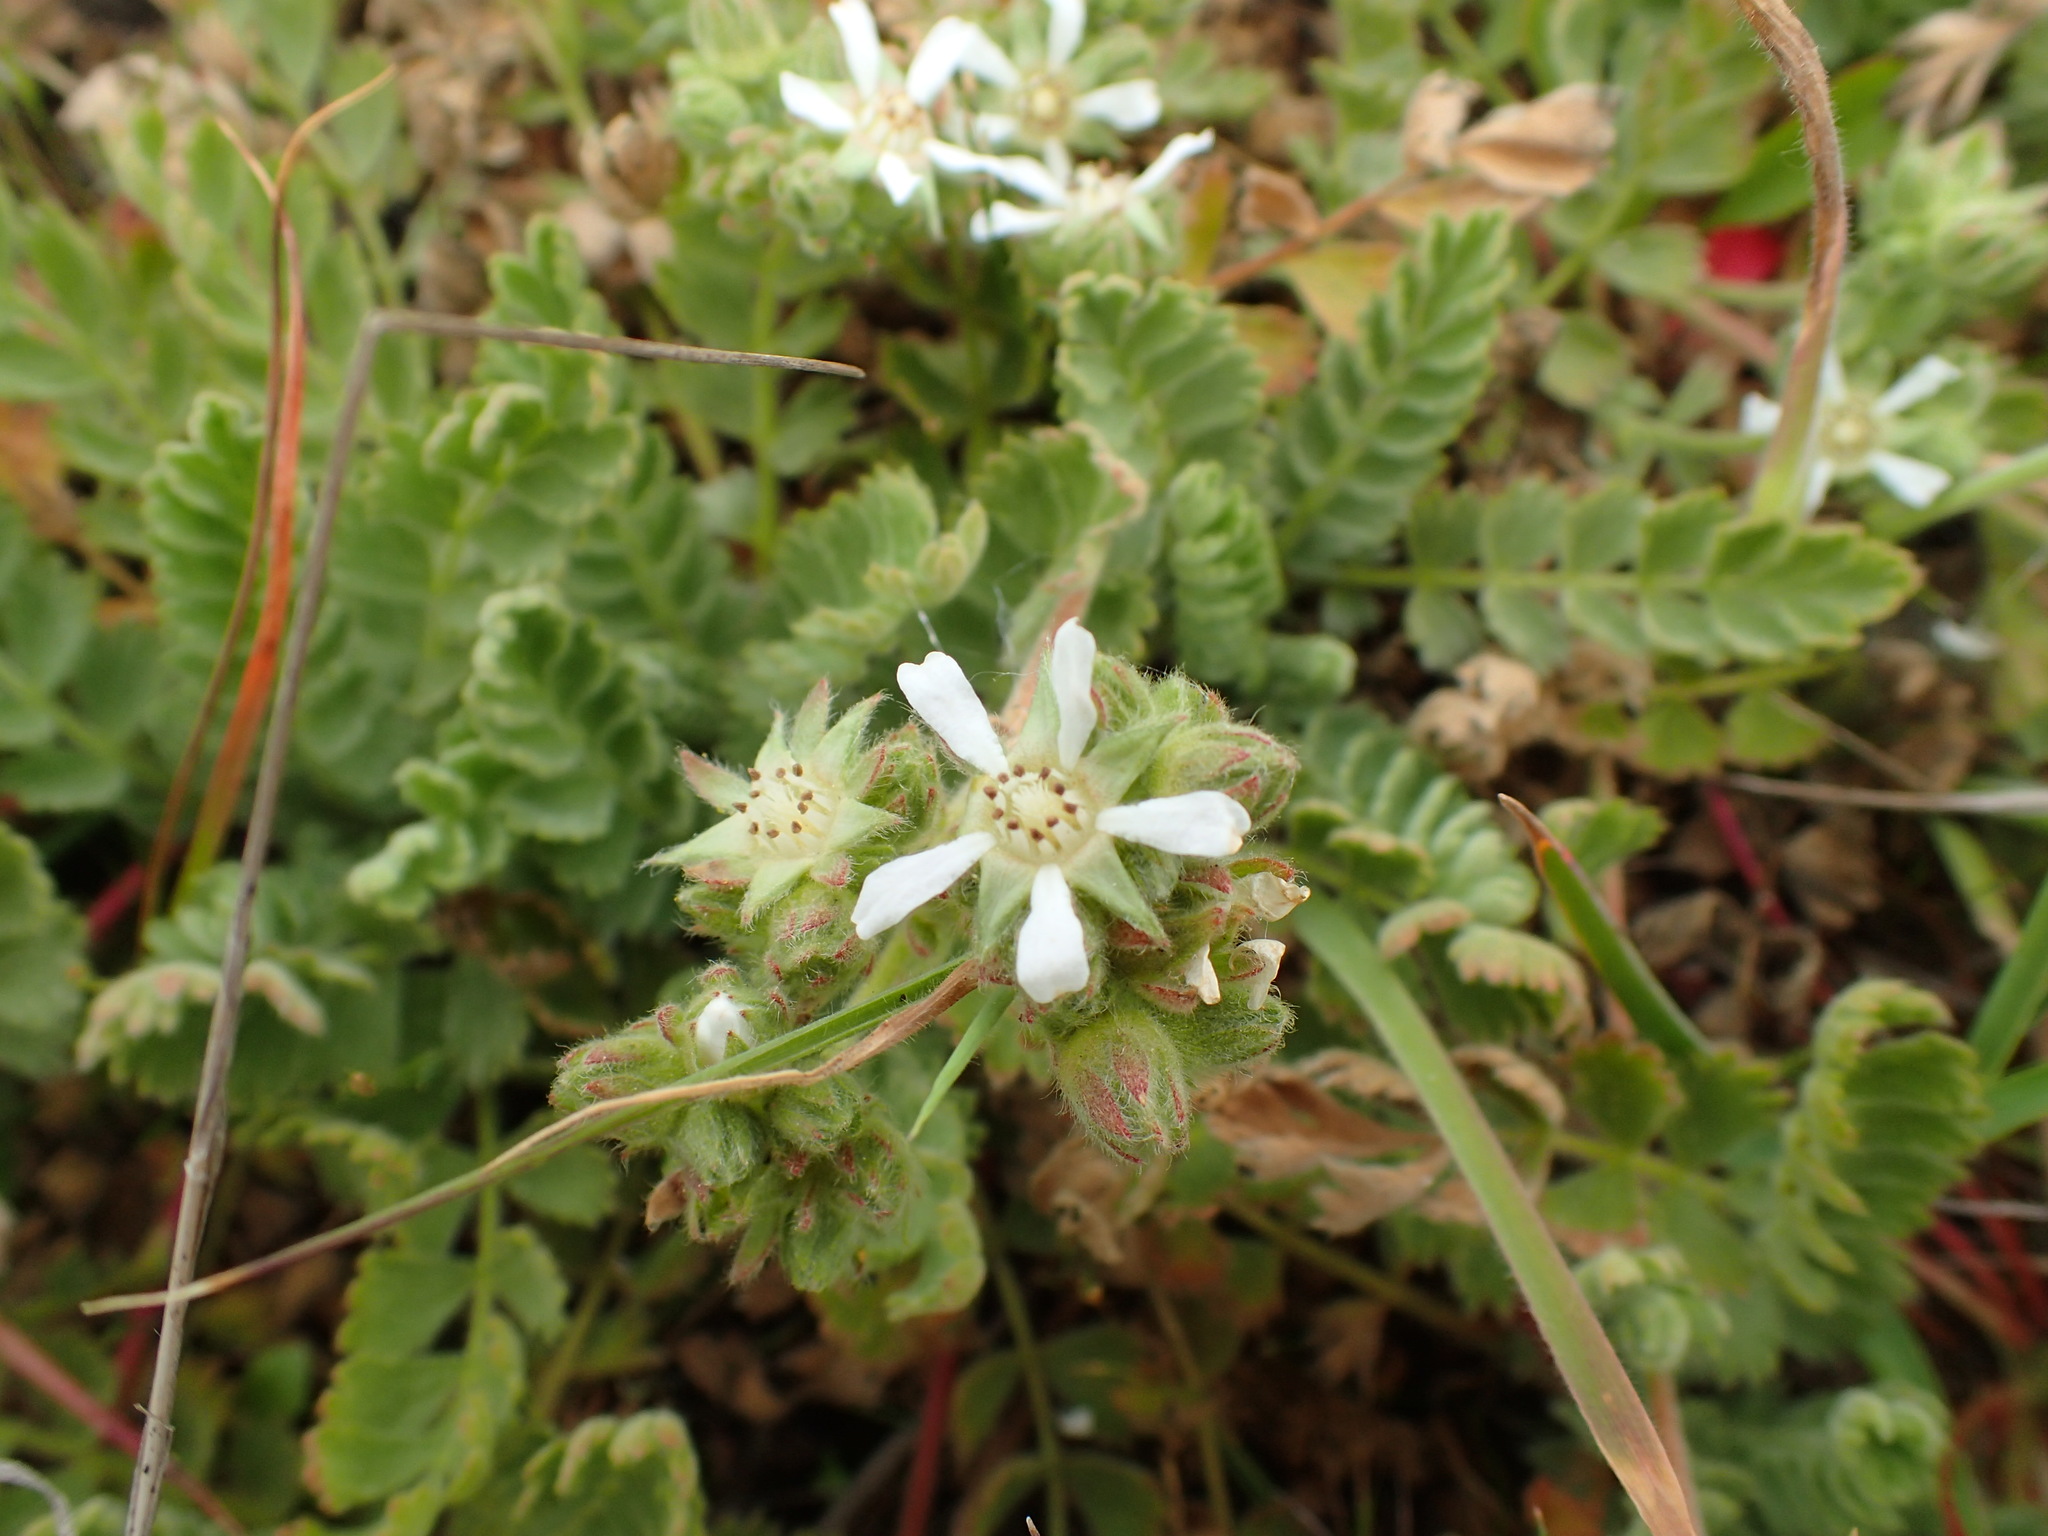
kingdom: Plantae
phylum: Tracheophyta
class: Magnoliopsida
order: Rosales
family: Rosaceae
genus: Potentilla
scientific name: Potentilla marinensis
